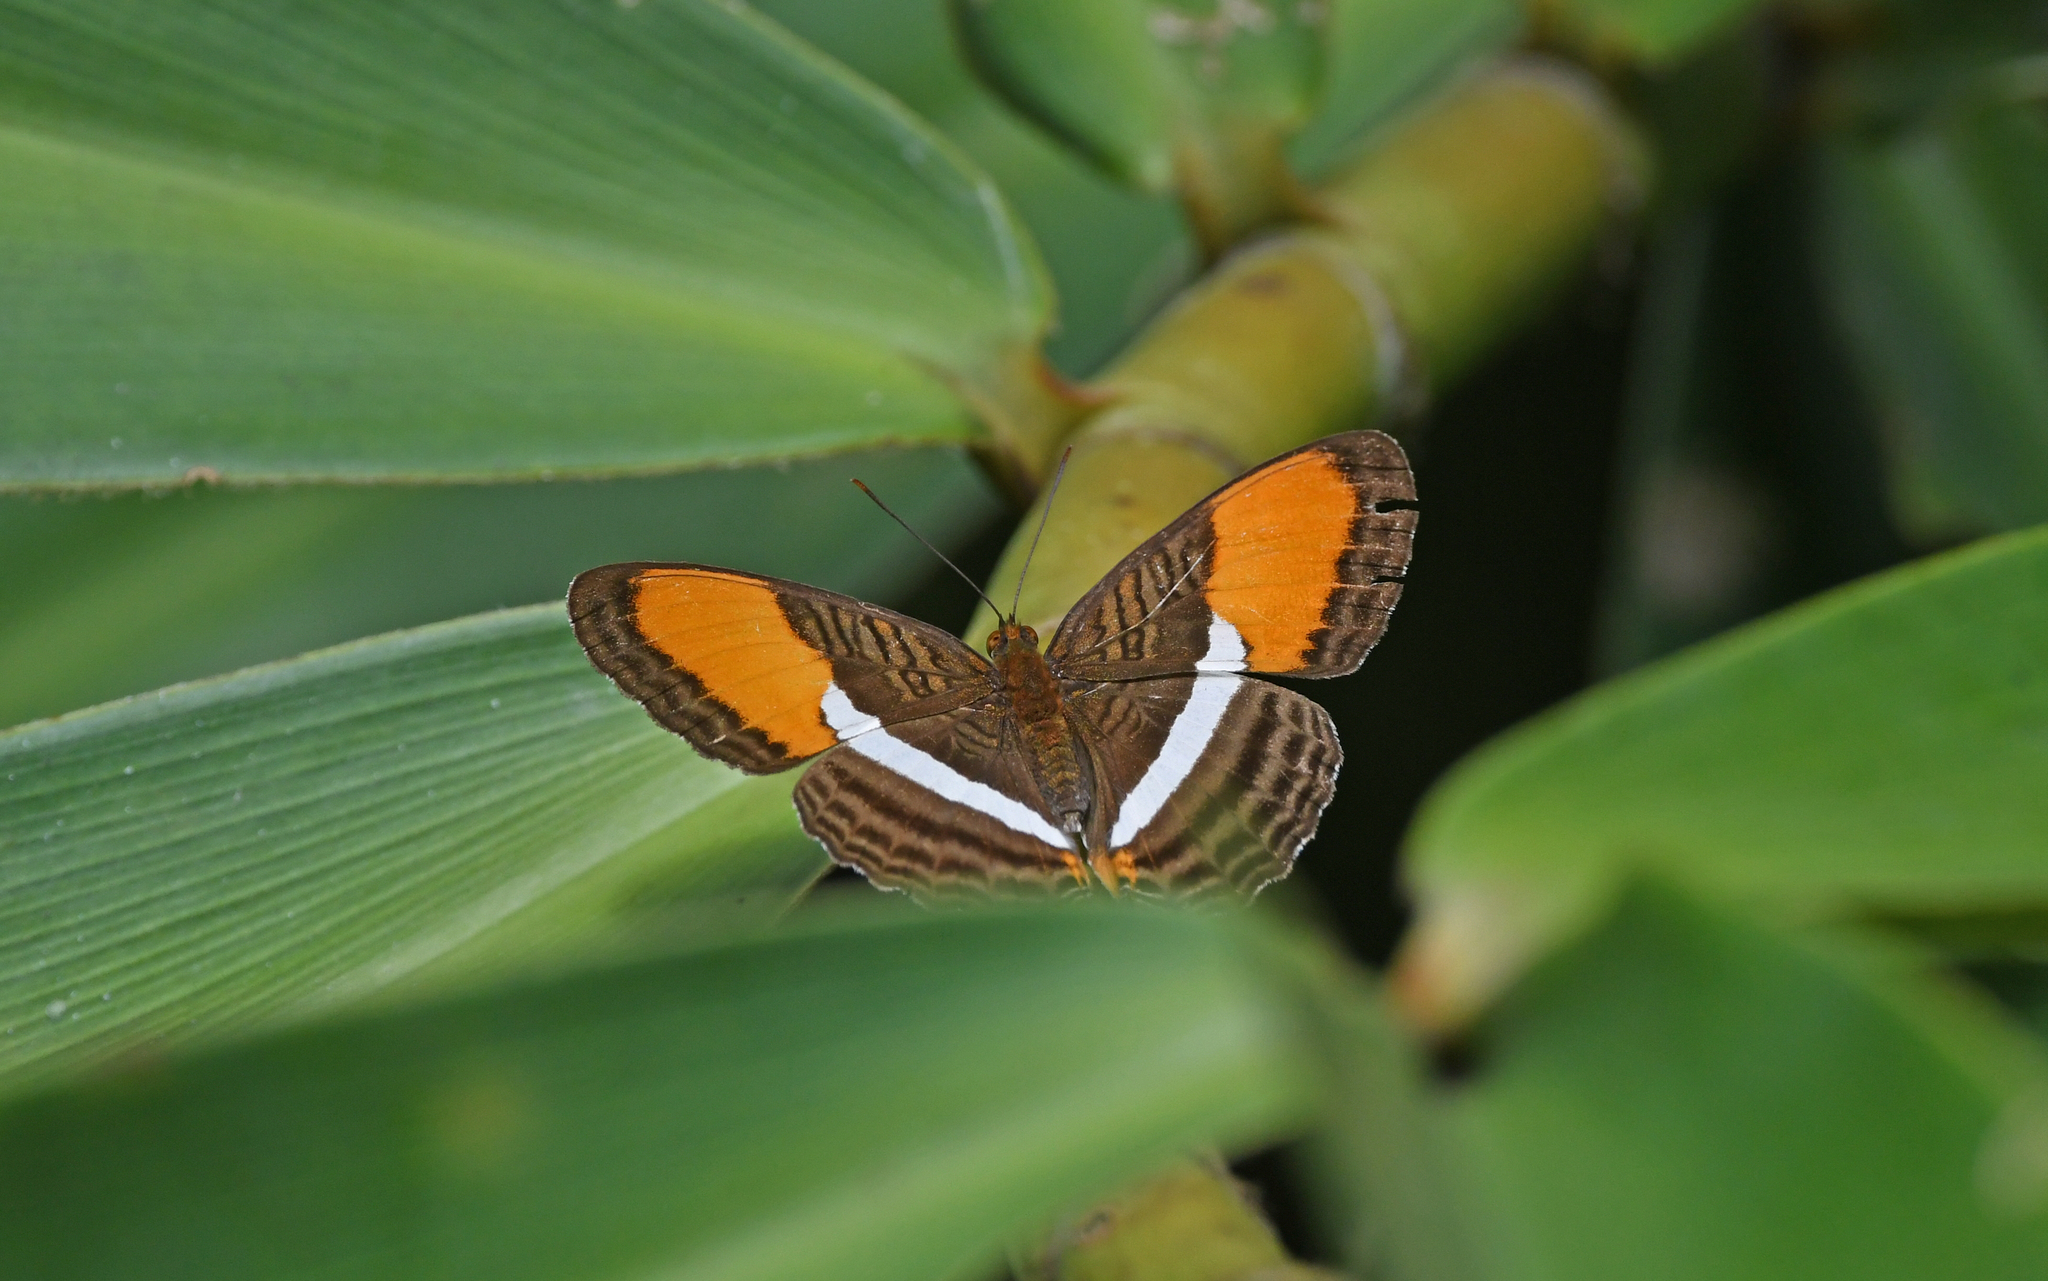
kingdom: Animalia
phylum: Arthropoda
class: Insecta
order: Lepidoptera
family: Nymphalidae
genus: Limenitis
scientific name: Limenitis cytherea
